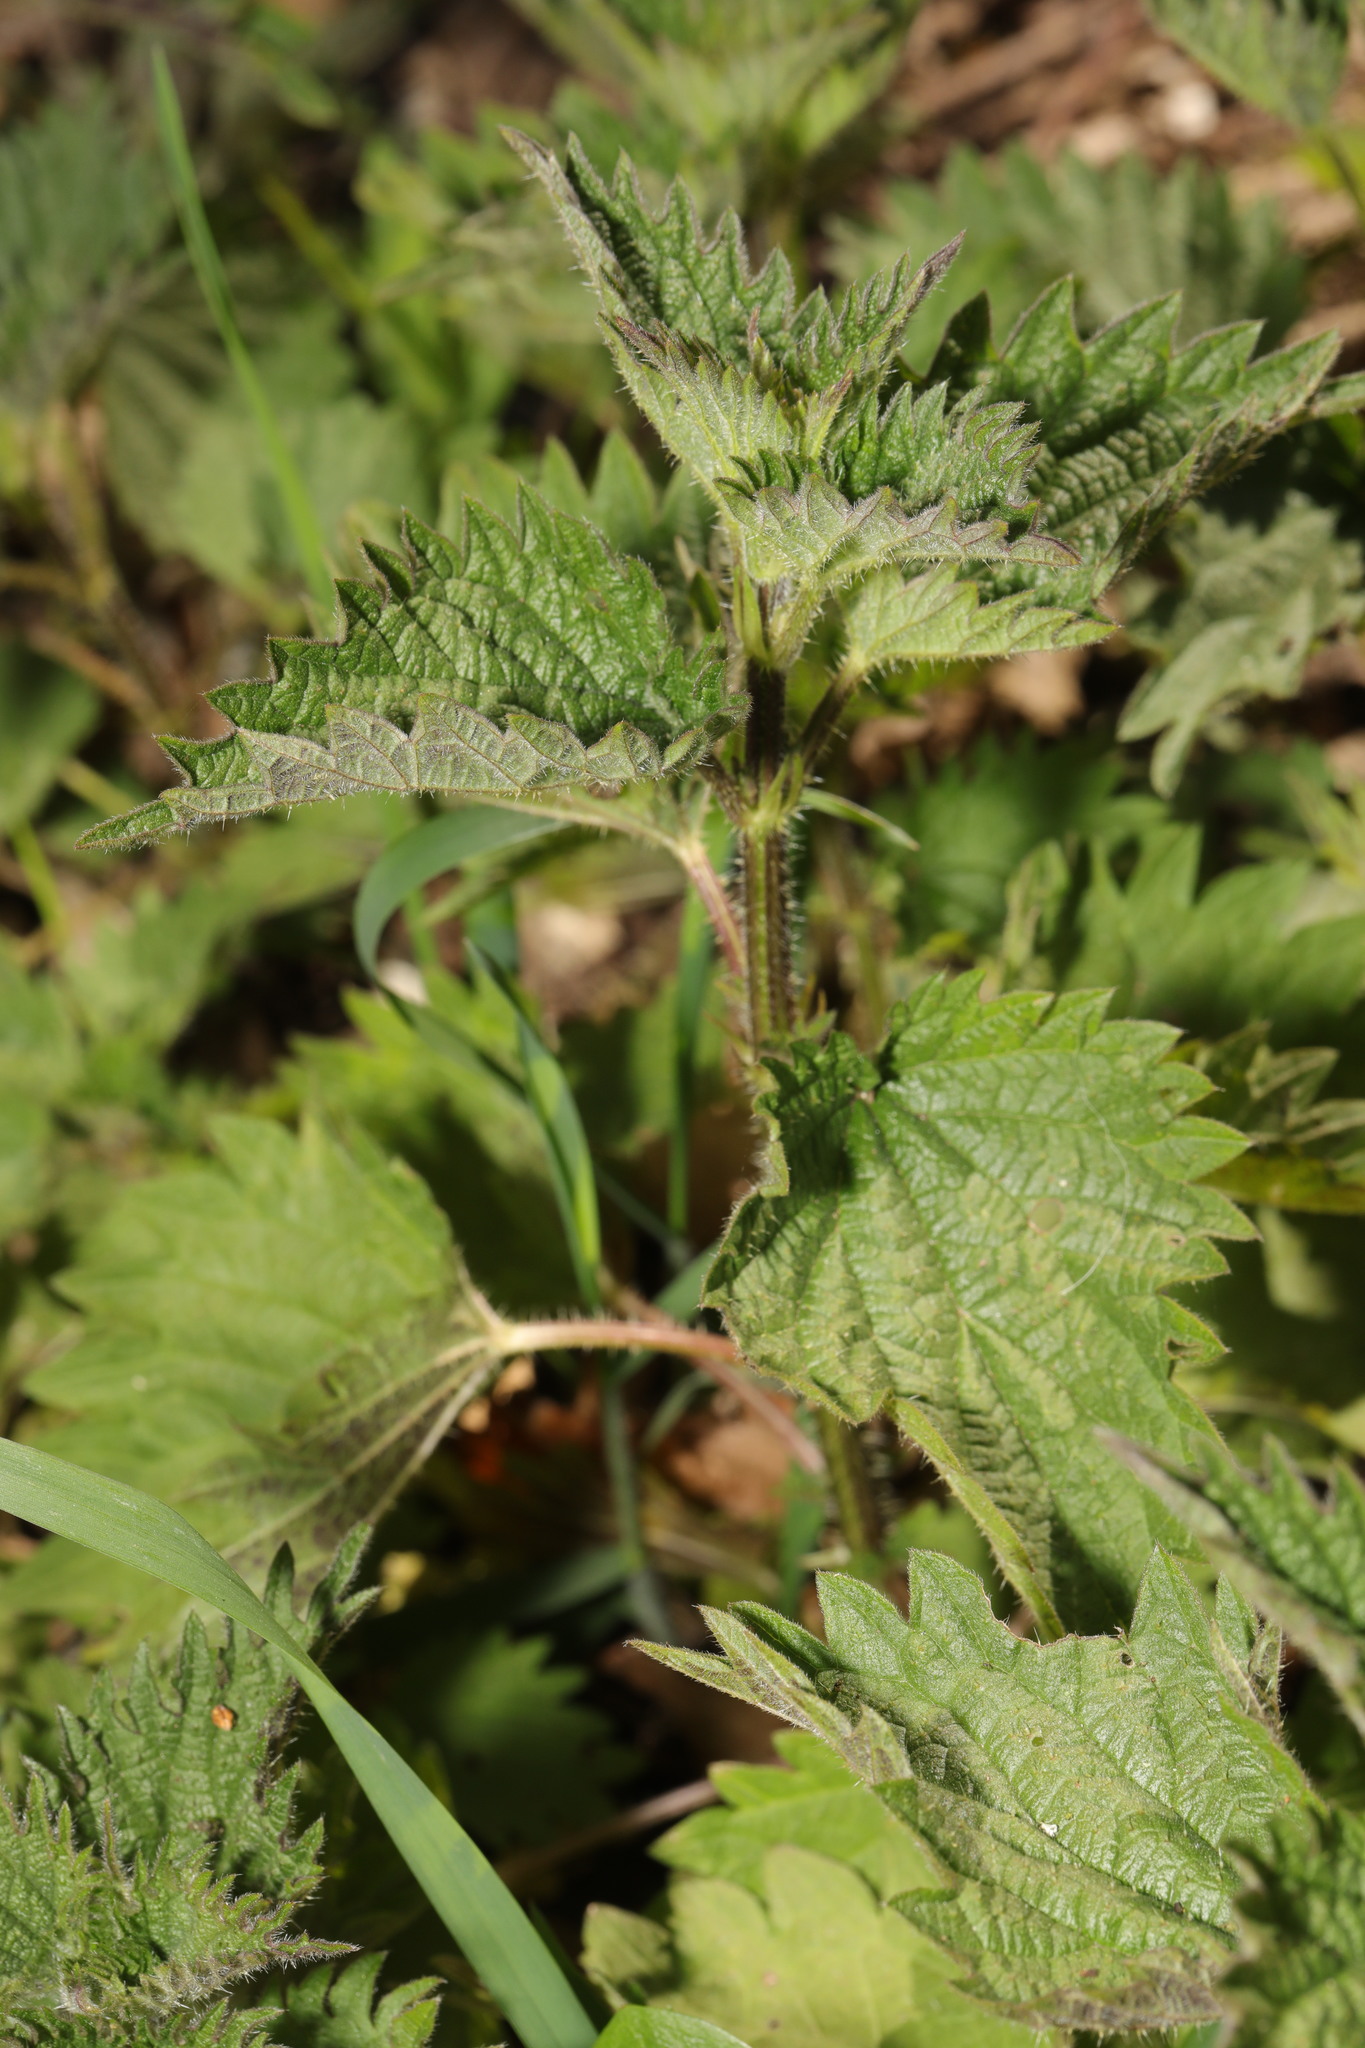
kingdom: Plantae
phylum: Tracheophyta
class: Magnoliopsida
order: Rosales
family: Urticaceae
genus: Urtica
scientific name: Urtica dioica
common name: Common nettle
